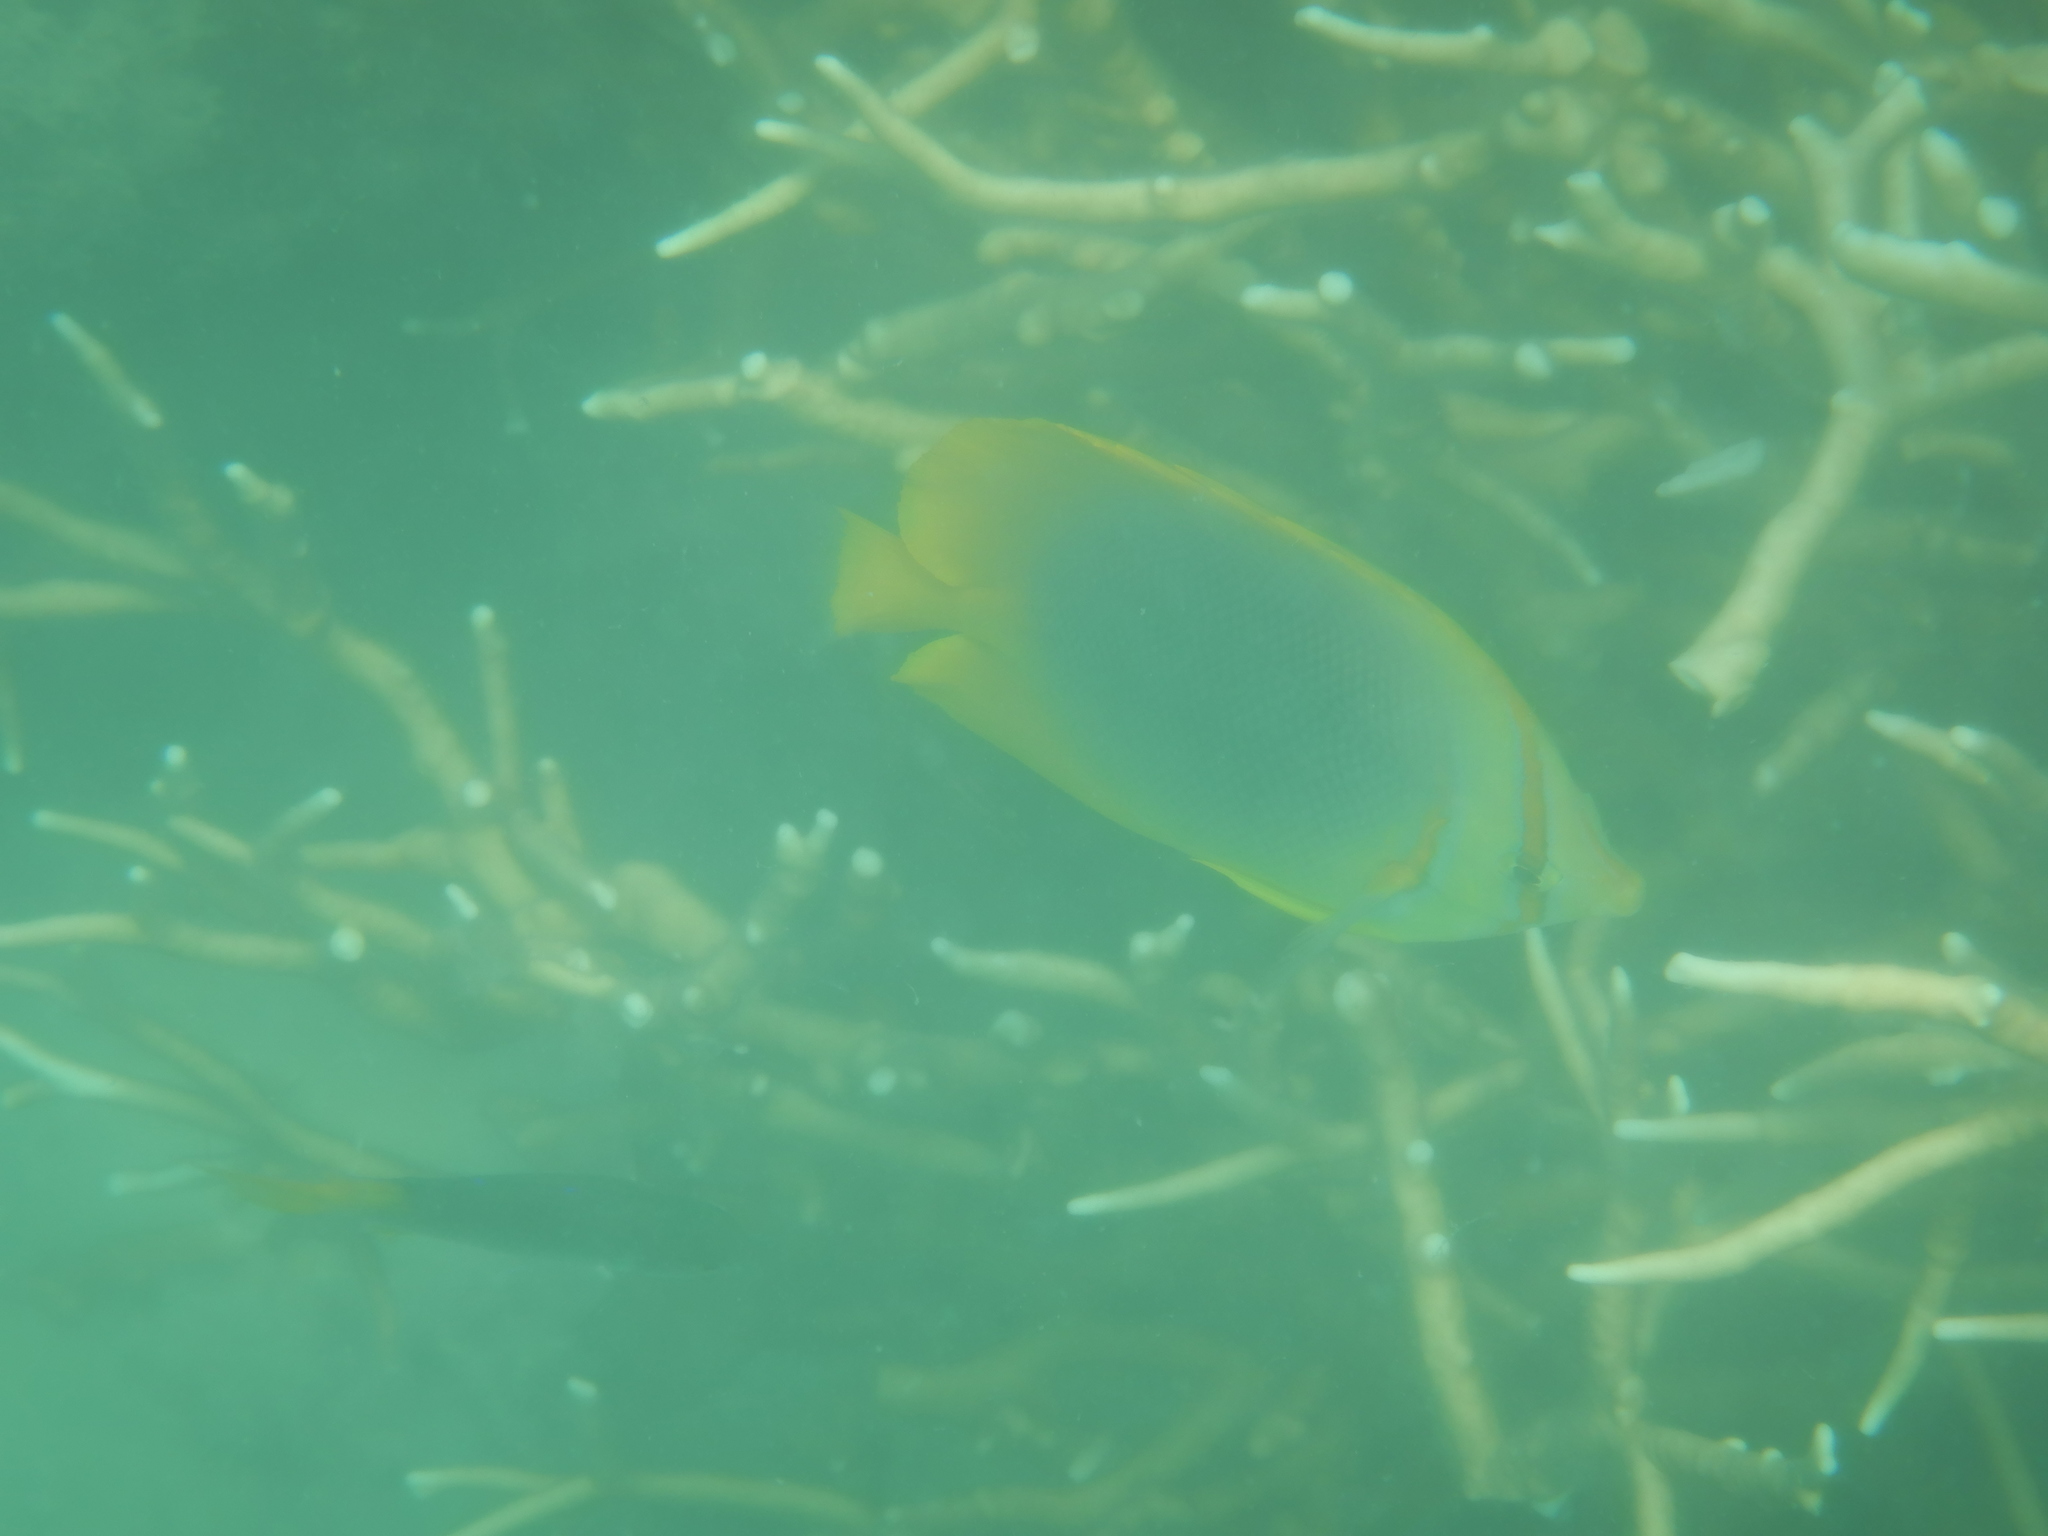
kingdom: Animalia
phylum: Chordata
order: Perciformes
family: Chaetodontidae
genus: Chaetodon
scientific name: Chaetodon aureofasciatus
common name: Golden butterflyfish
